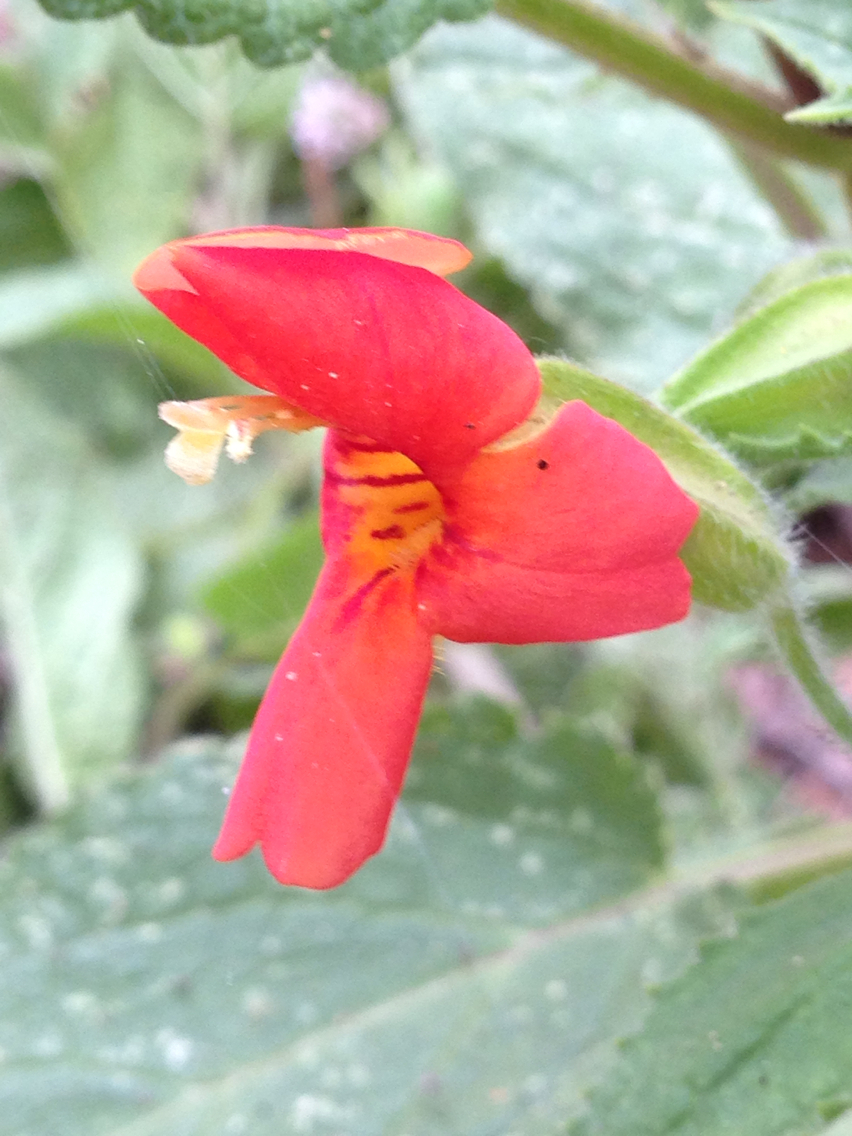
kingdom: Plantae
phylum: Tracheophyta
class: Magnoliopsida
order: Lamiales
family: Phrymaceae
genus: Erythranthe
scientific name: Erythranthe cardinalis
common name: Scarlet monkey-flower
